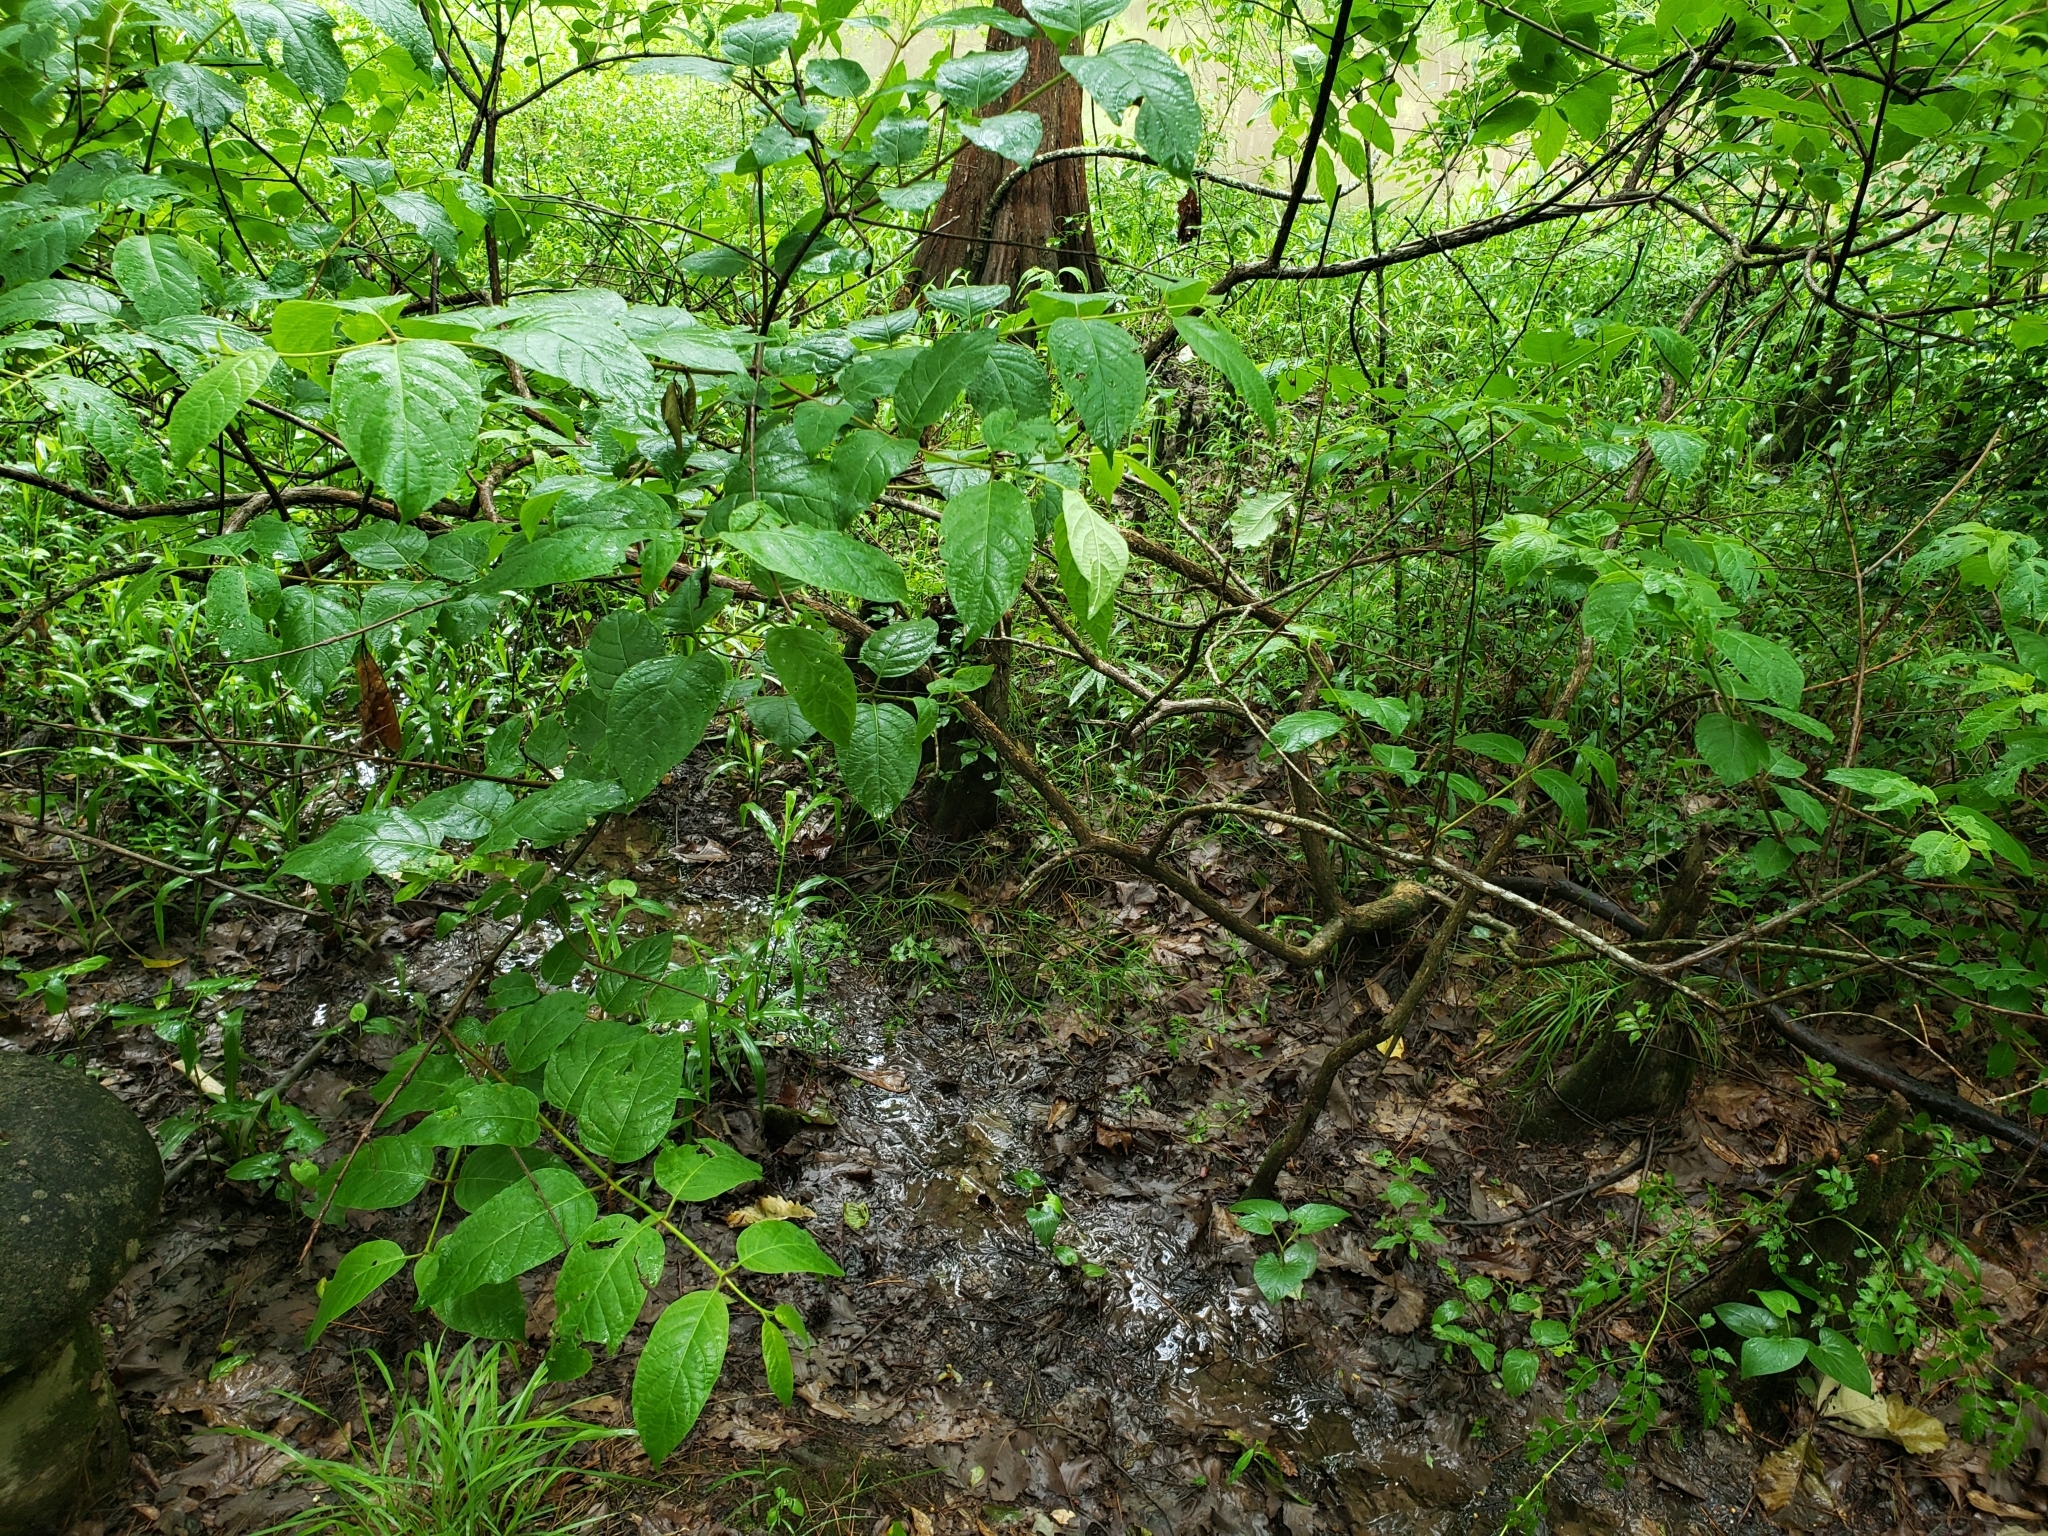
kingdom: Plantae
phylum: Tracheophyta
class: Magnoliopsida
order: Gentianales
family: Rubiaceae
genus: Cephalanthus
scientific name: Cephalanthus occidentalis
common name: Button-willow
